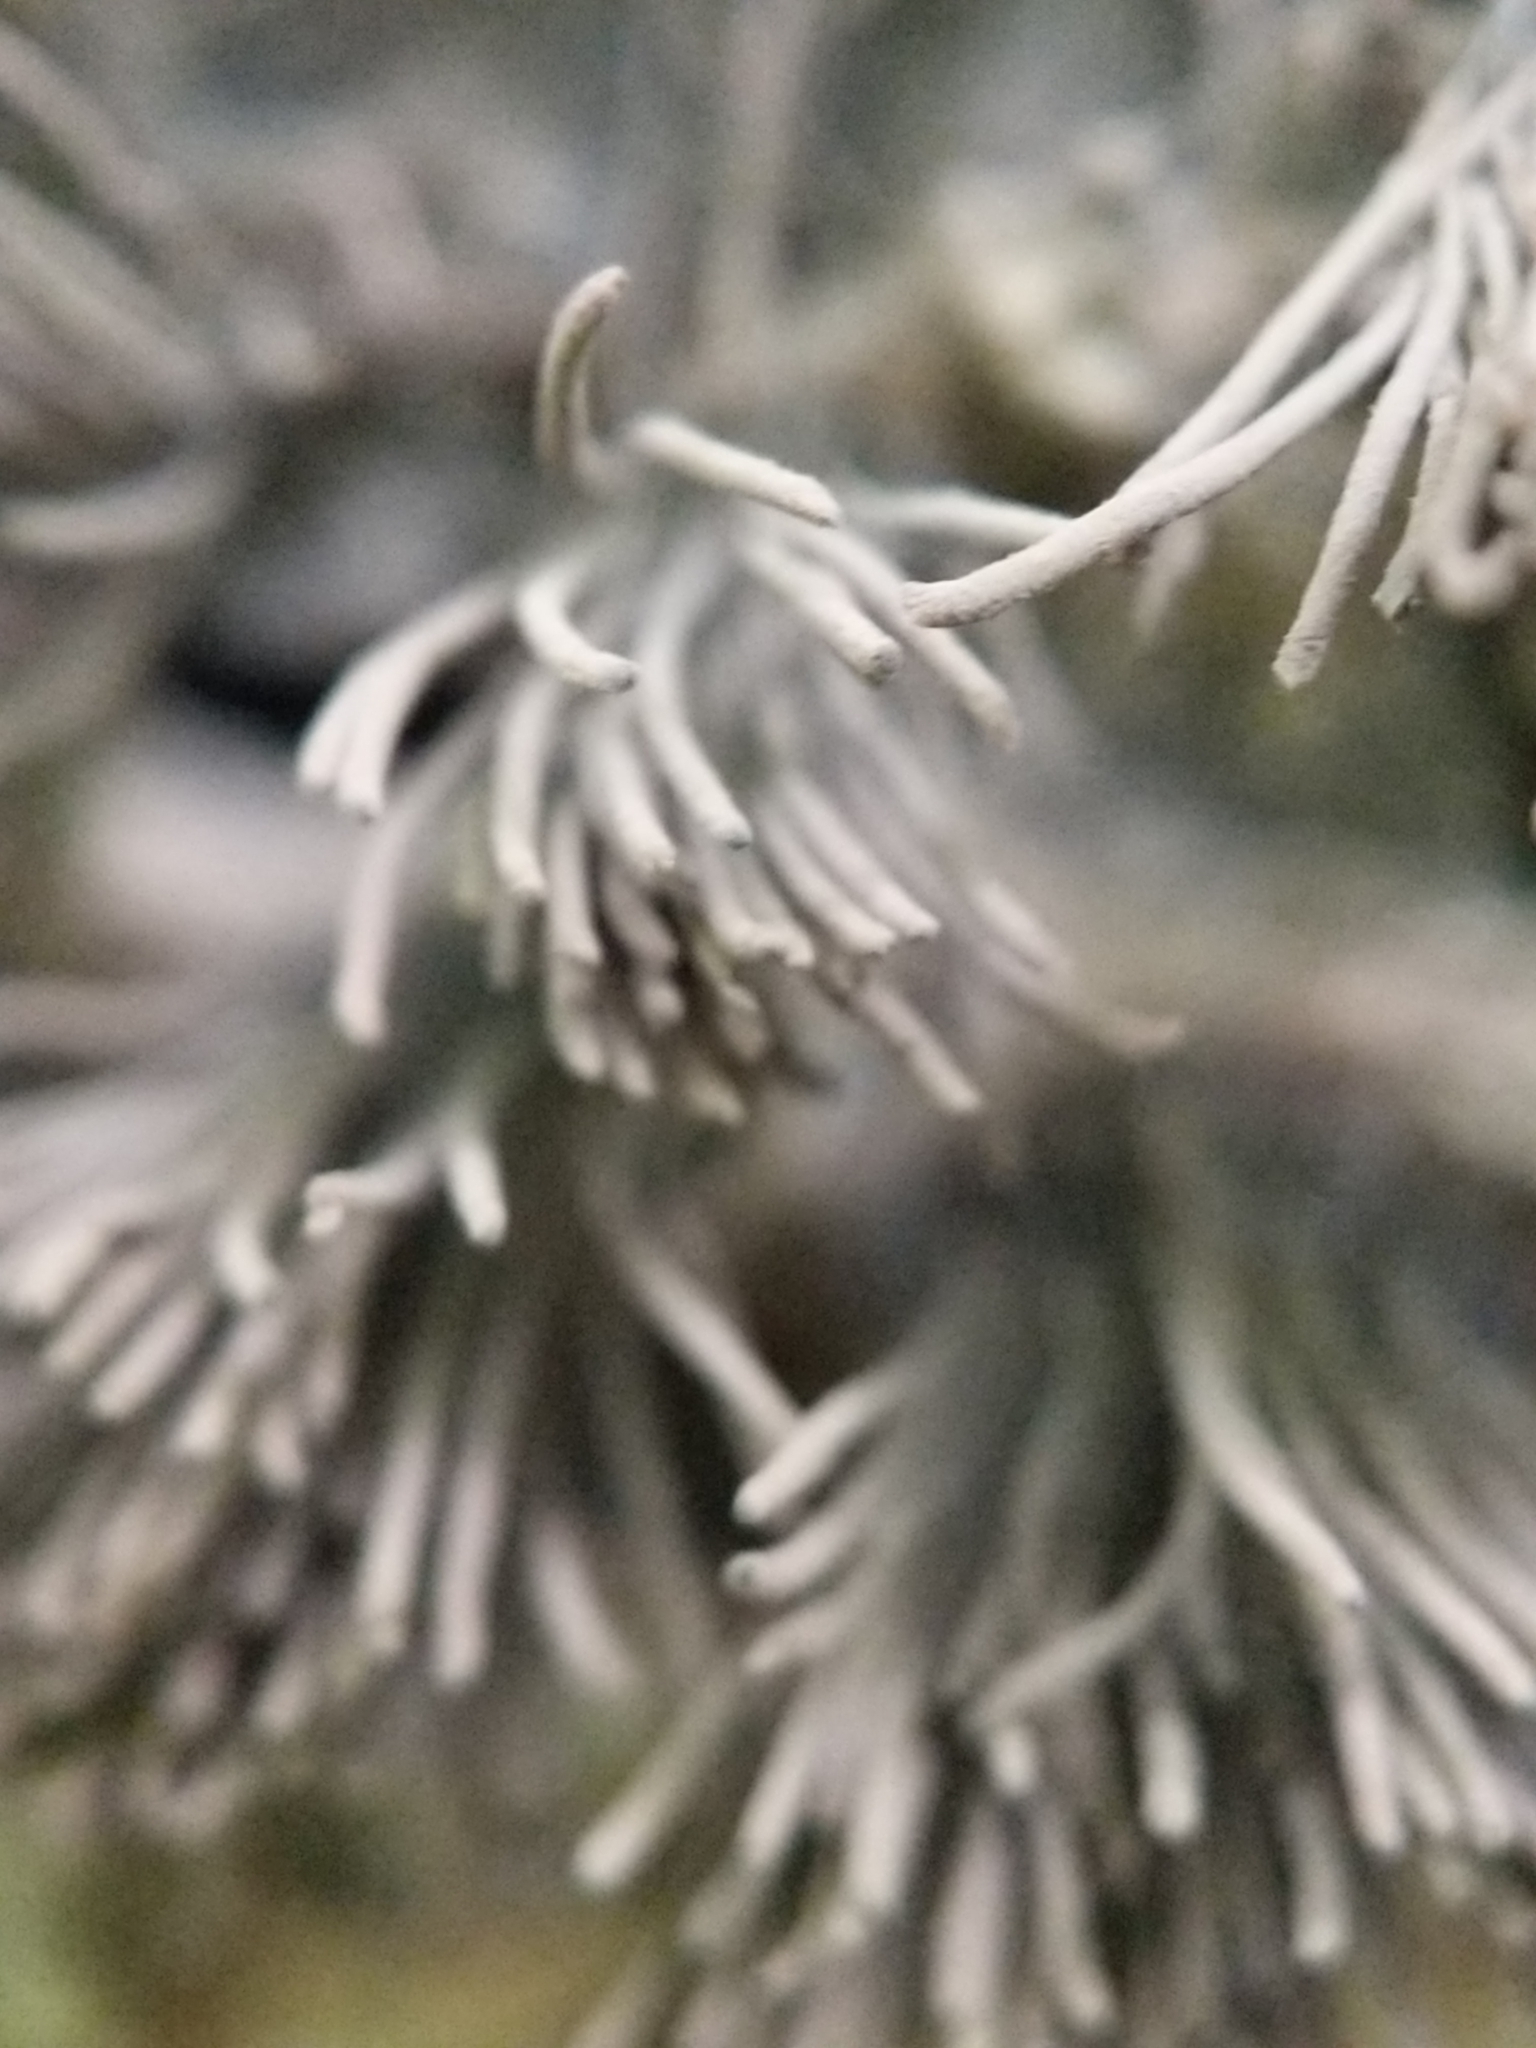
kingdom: Protozoa
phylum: Mycetozoa
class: Myxomycetes
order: Stemonitidales
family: Stemonitidaceae
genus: Stemonitis
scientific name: Stemonitis splendens
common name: Chocolate tube slime
